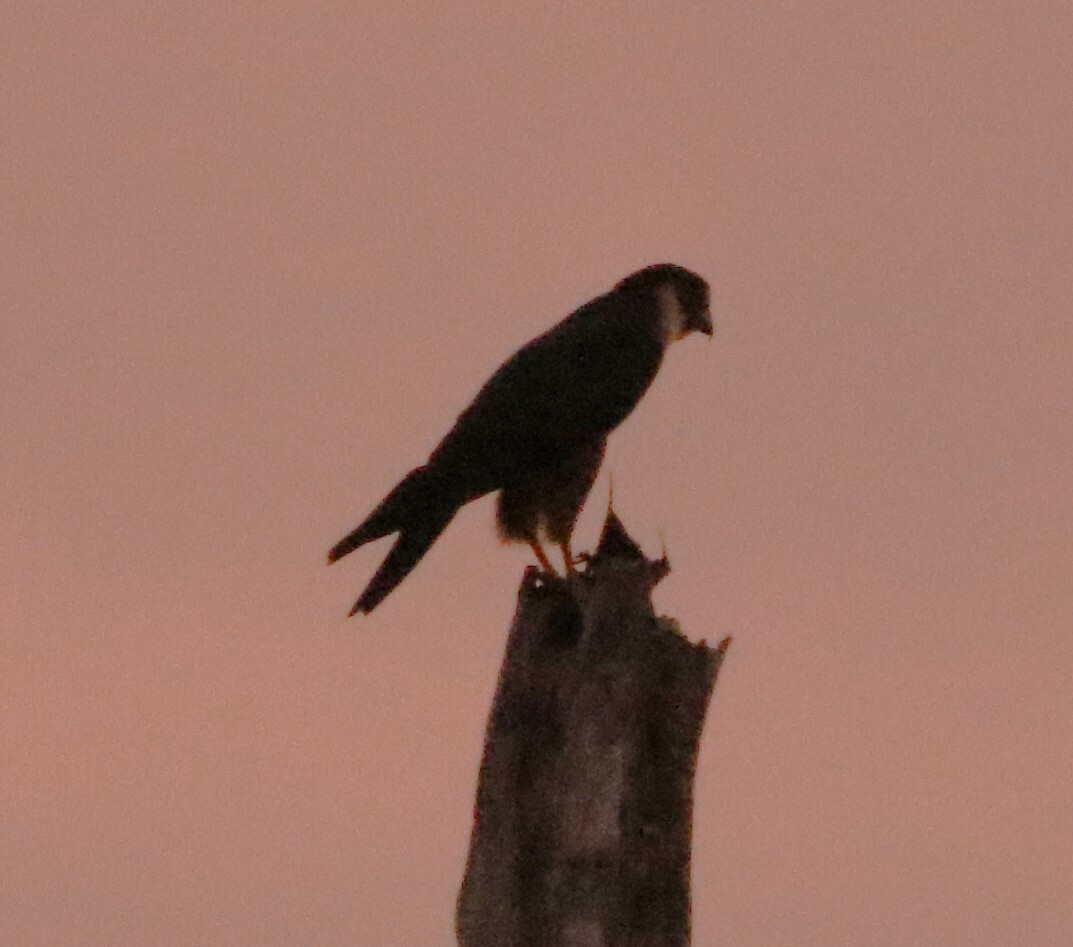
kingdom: Animalia
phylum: Chordata
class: Aves
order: Falconiformes
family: Falconidae
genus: Falco
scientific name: Falco rufigularis
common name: Bat falcon
